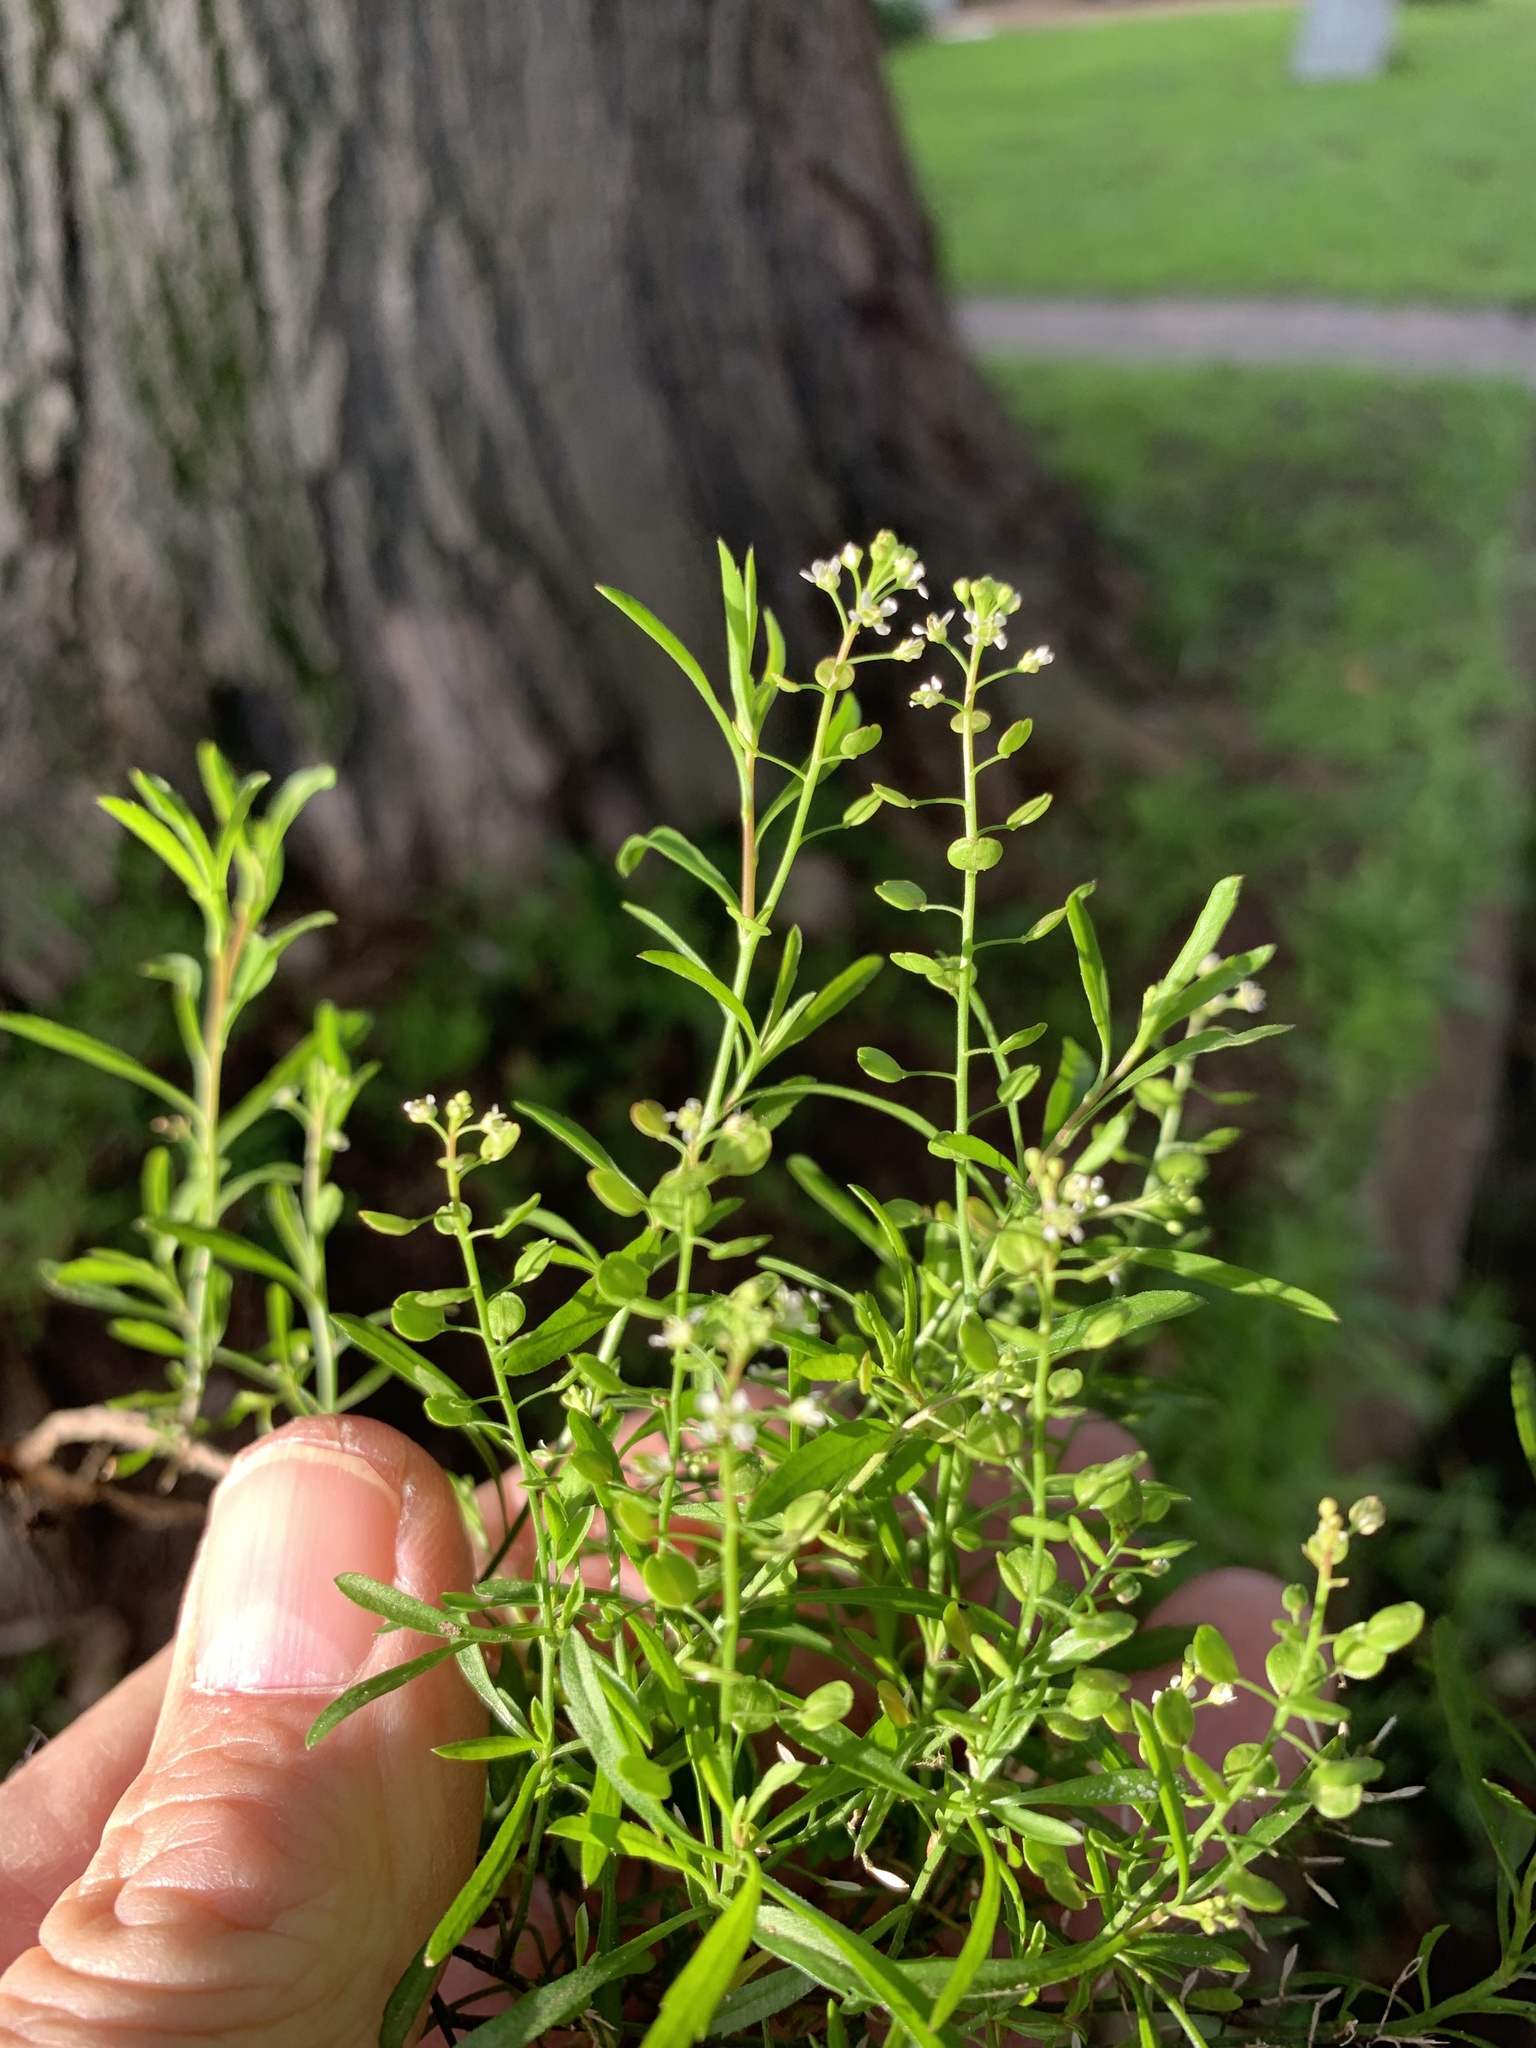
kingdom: Plantae
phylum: Tracheophyta
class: Magnoliopsida
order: Brassicales
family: Brassicaceae
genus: Lepidium
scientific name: Lepidium virginicum
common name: Least pepperwort
